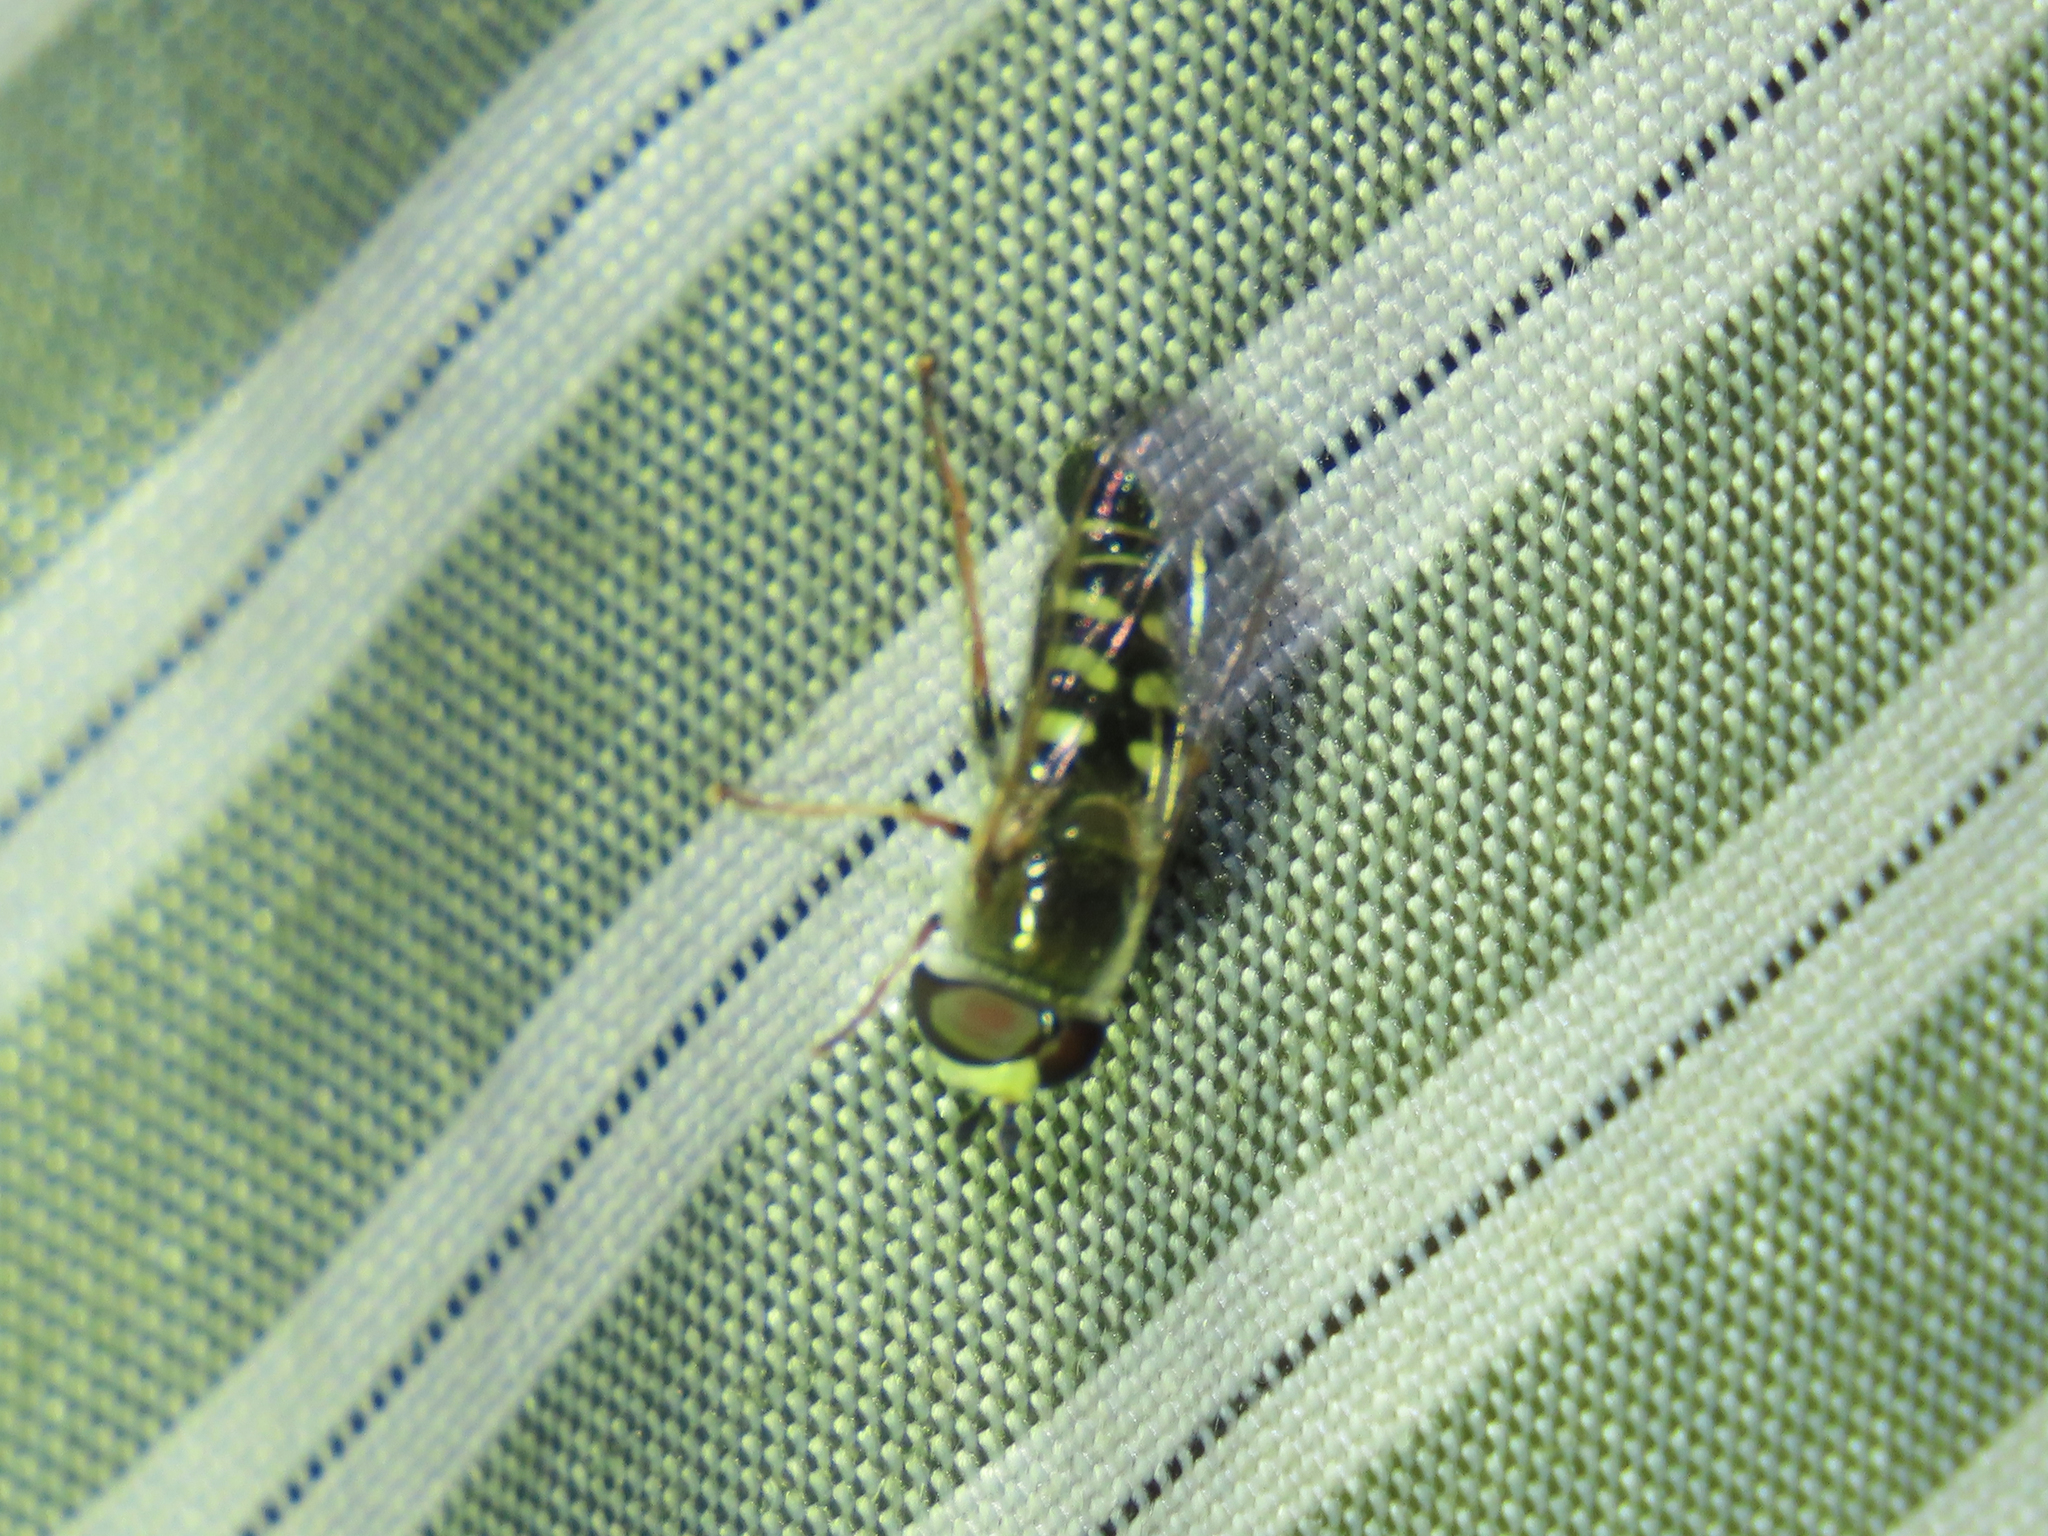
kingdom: Animalia
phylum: Arthropoda
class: Insecta
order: Diptera
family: Syrphidae
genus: Eupeodes
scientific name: Eupeodes volucris
